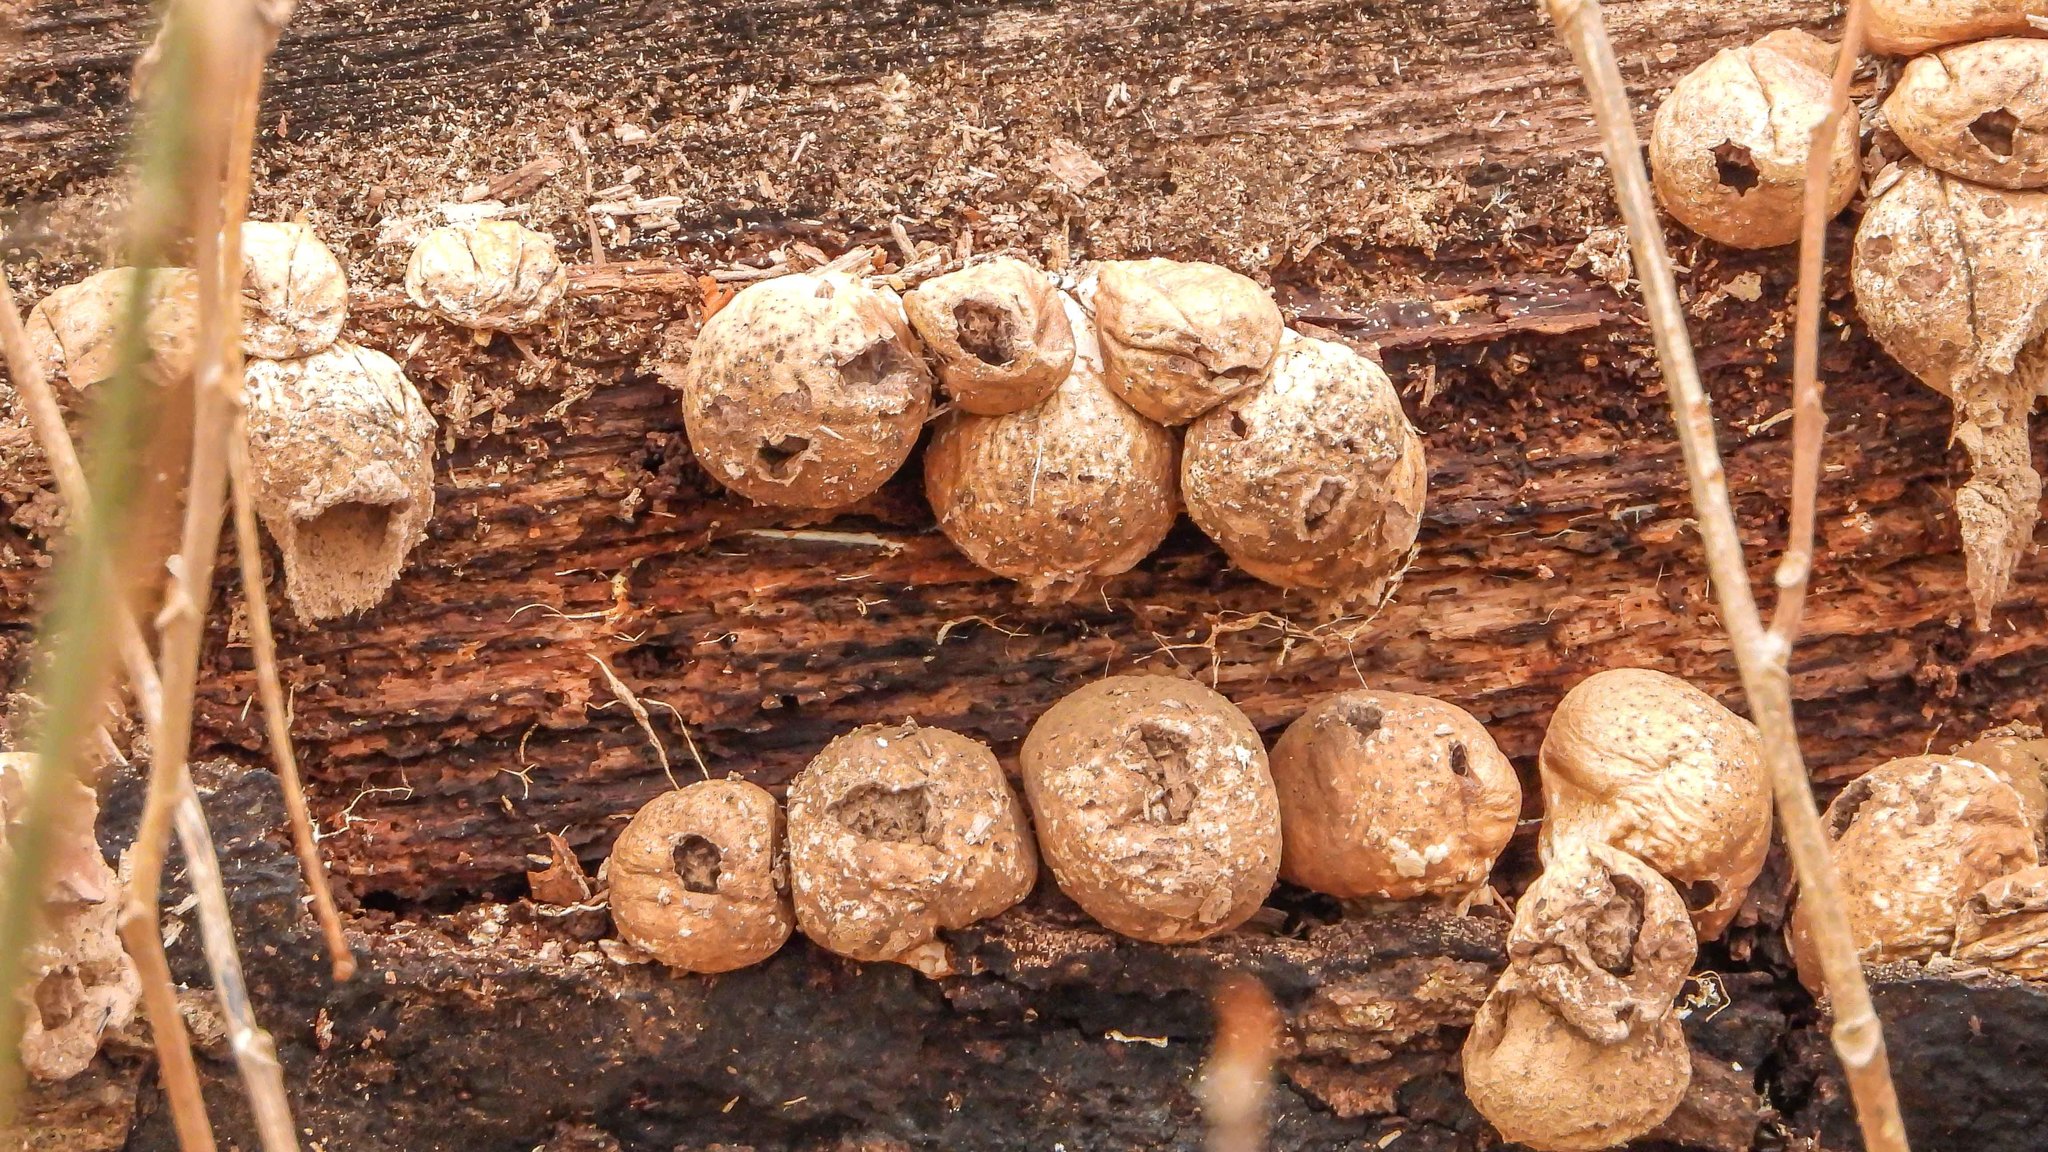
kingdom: Fungi
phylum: Basidiomycota
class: Agaricomycetes
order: Agaricales
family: Lycoperdaceae
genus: Apioperdon
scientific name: Apioperdon pyriforme
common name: Pear-shaped puffball
